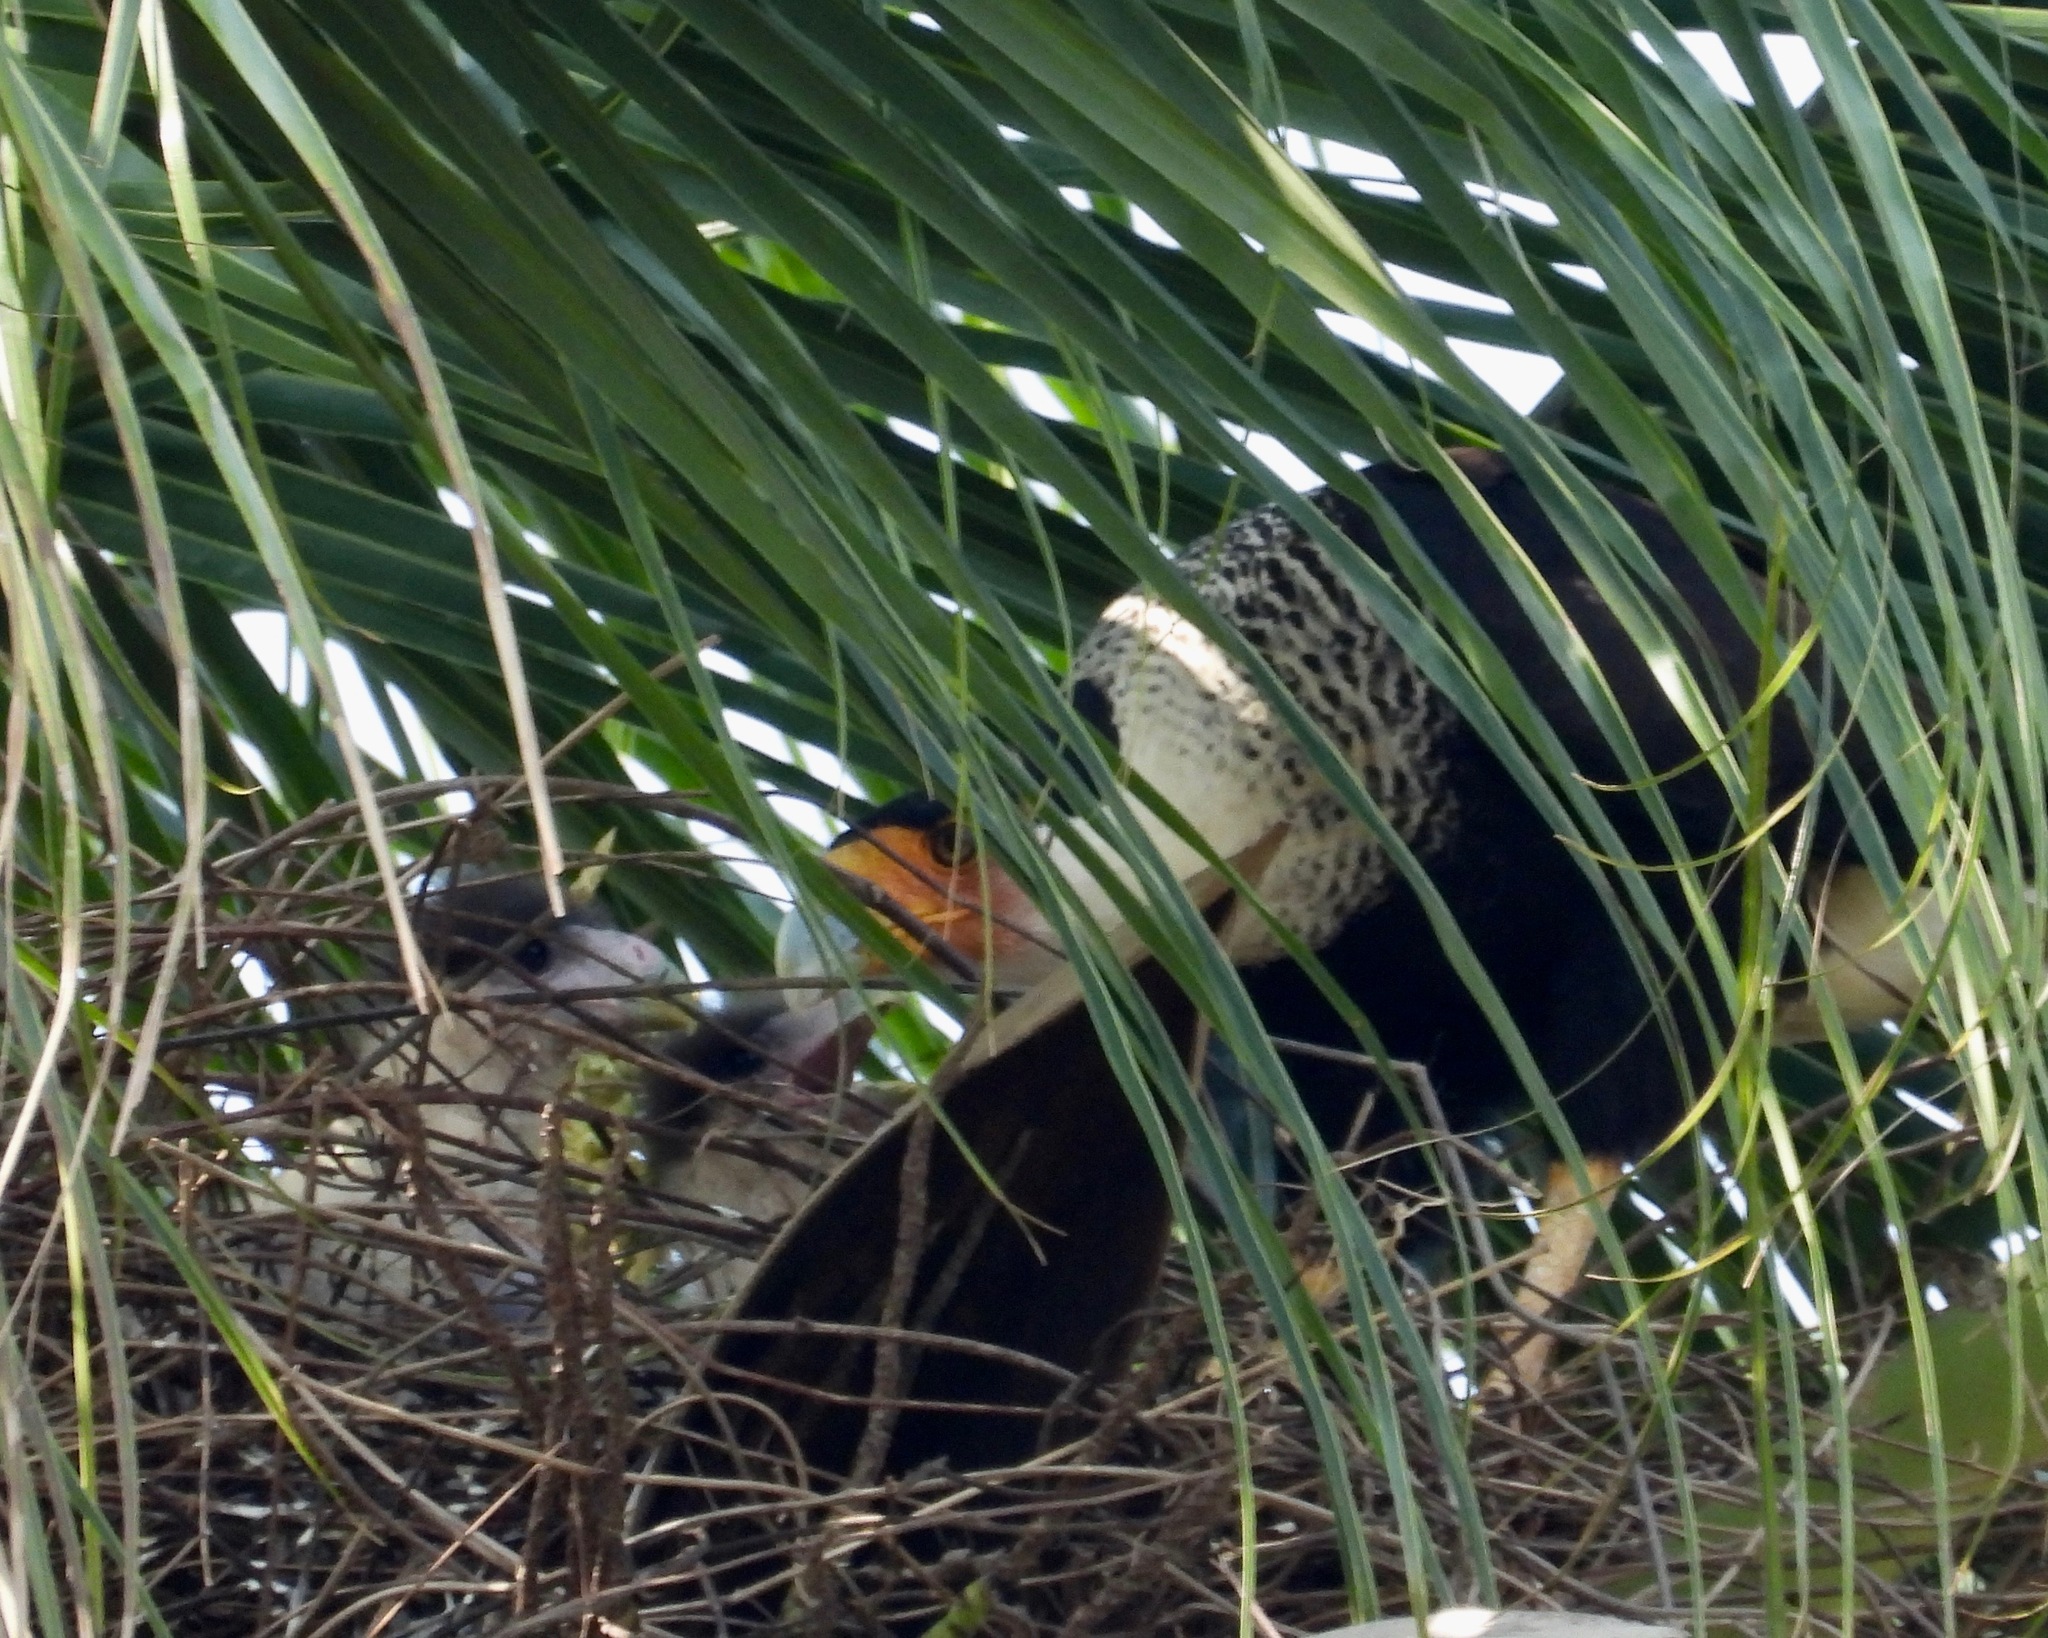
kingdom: Animalia
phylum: Chordata
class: Aves
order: Falconiformes
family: Falconidae
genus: Caracara
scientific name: Caracara plancus
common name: Southern caracara
